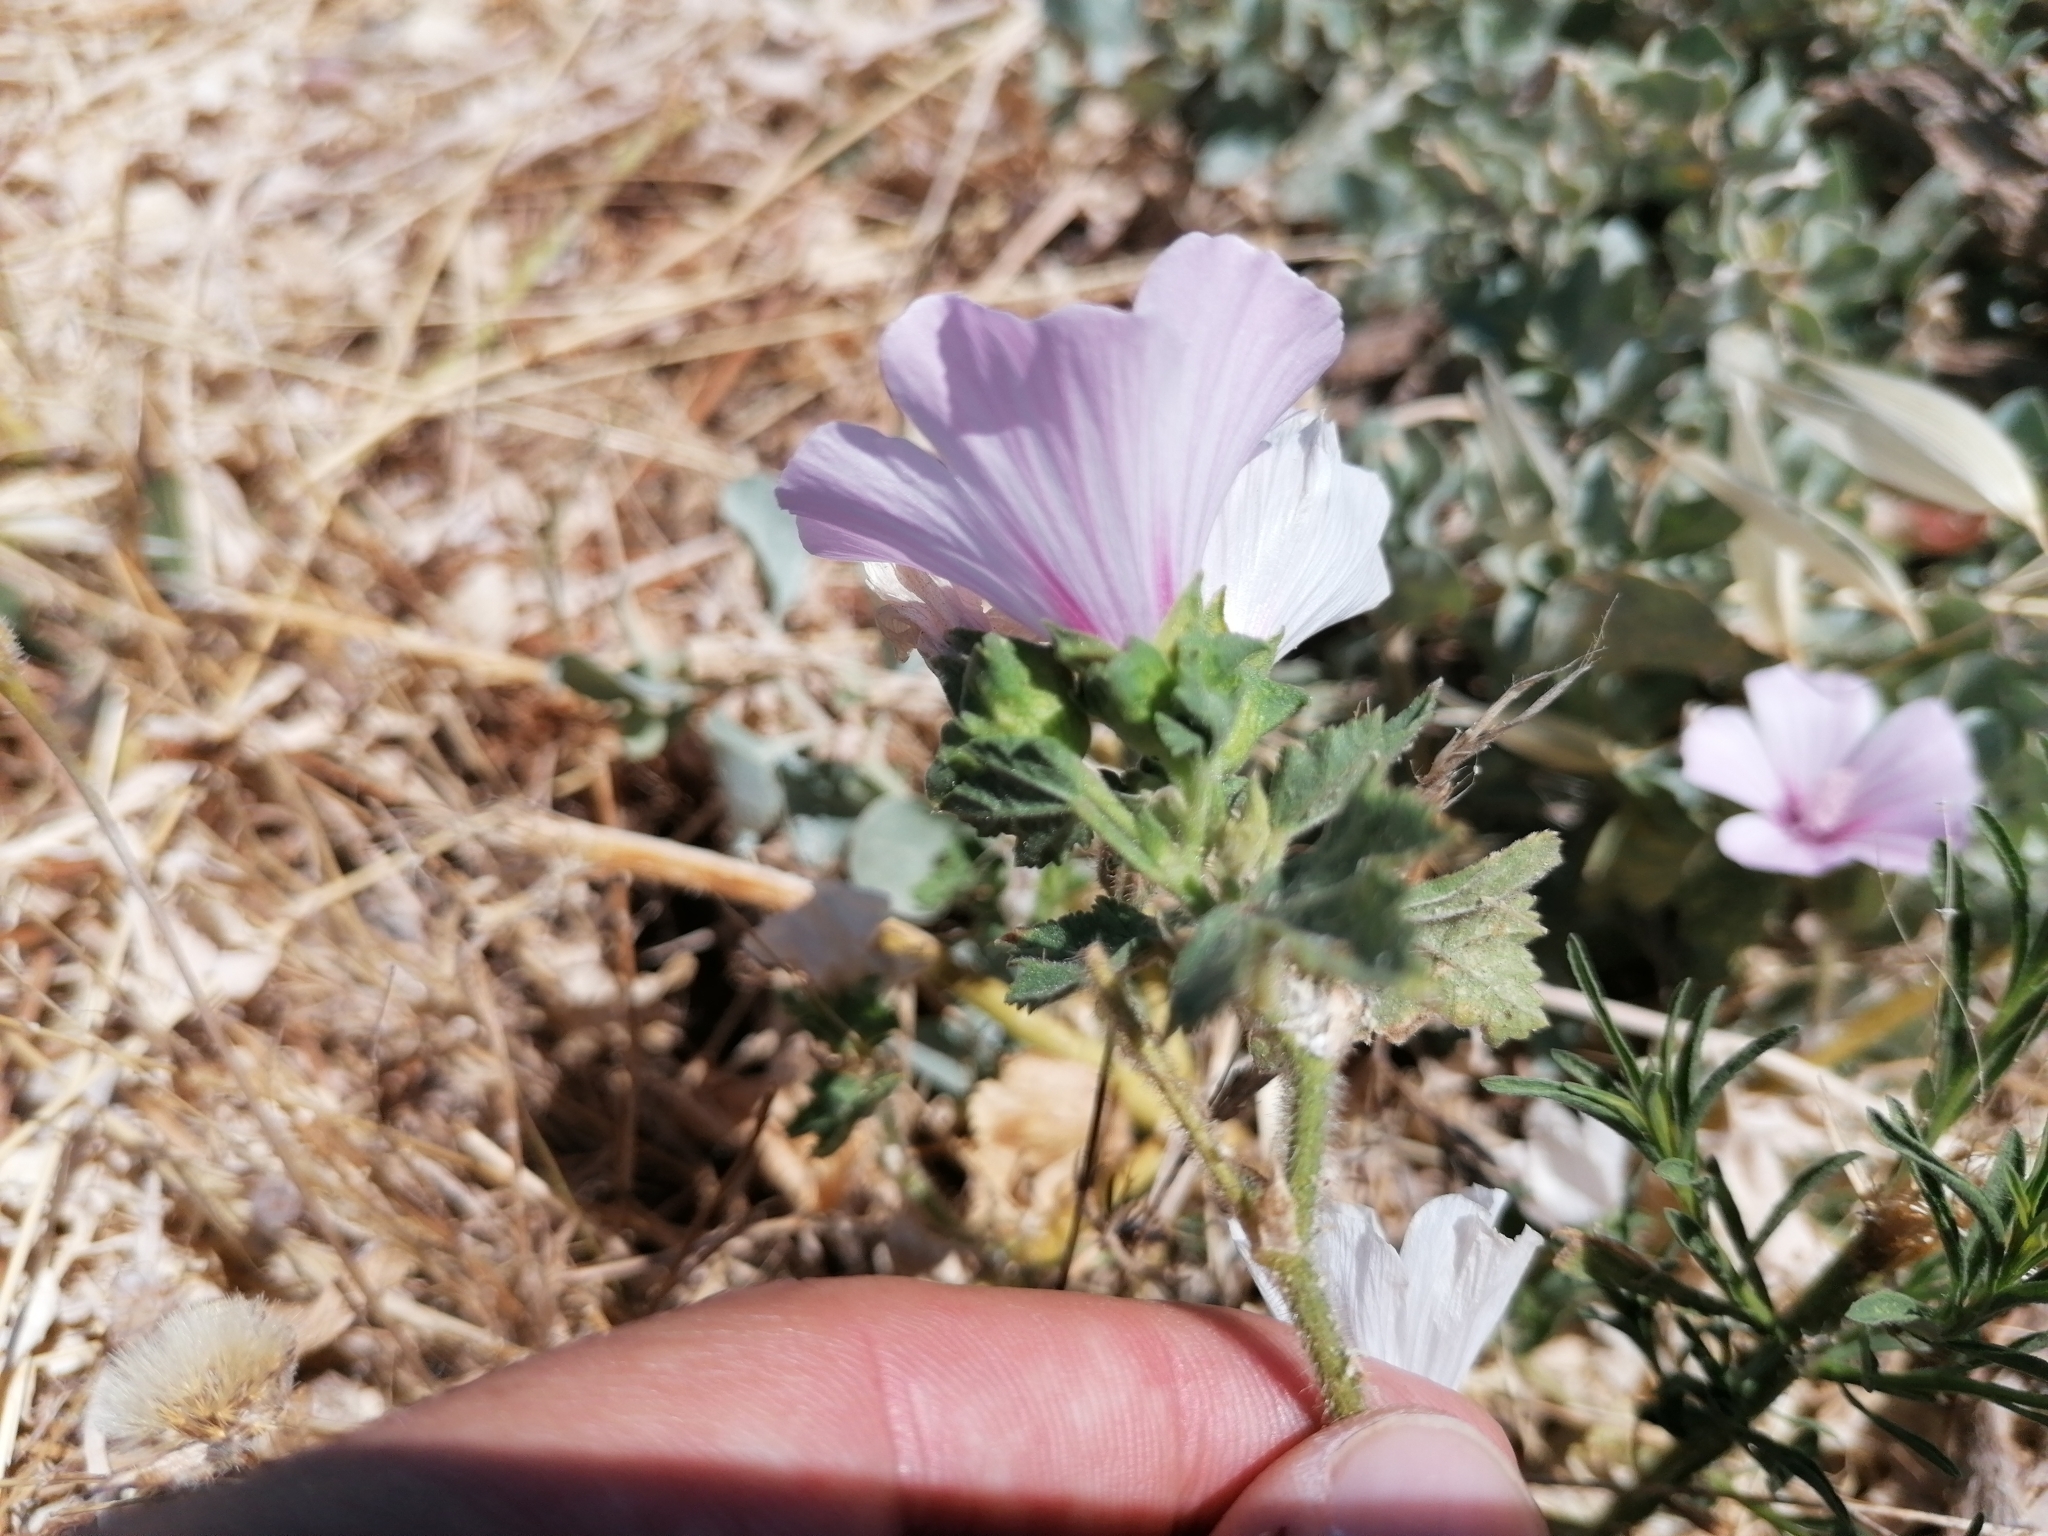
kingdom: Plantae
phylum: Tracheophyta
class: Magnoliopsida
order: Malvales
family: Malvaceae
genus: Malva
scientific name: Malva trimestris
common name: Royal mallow
